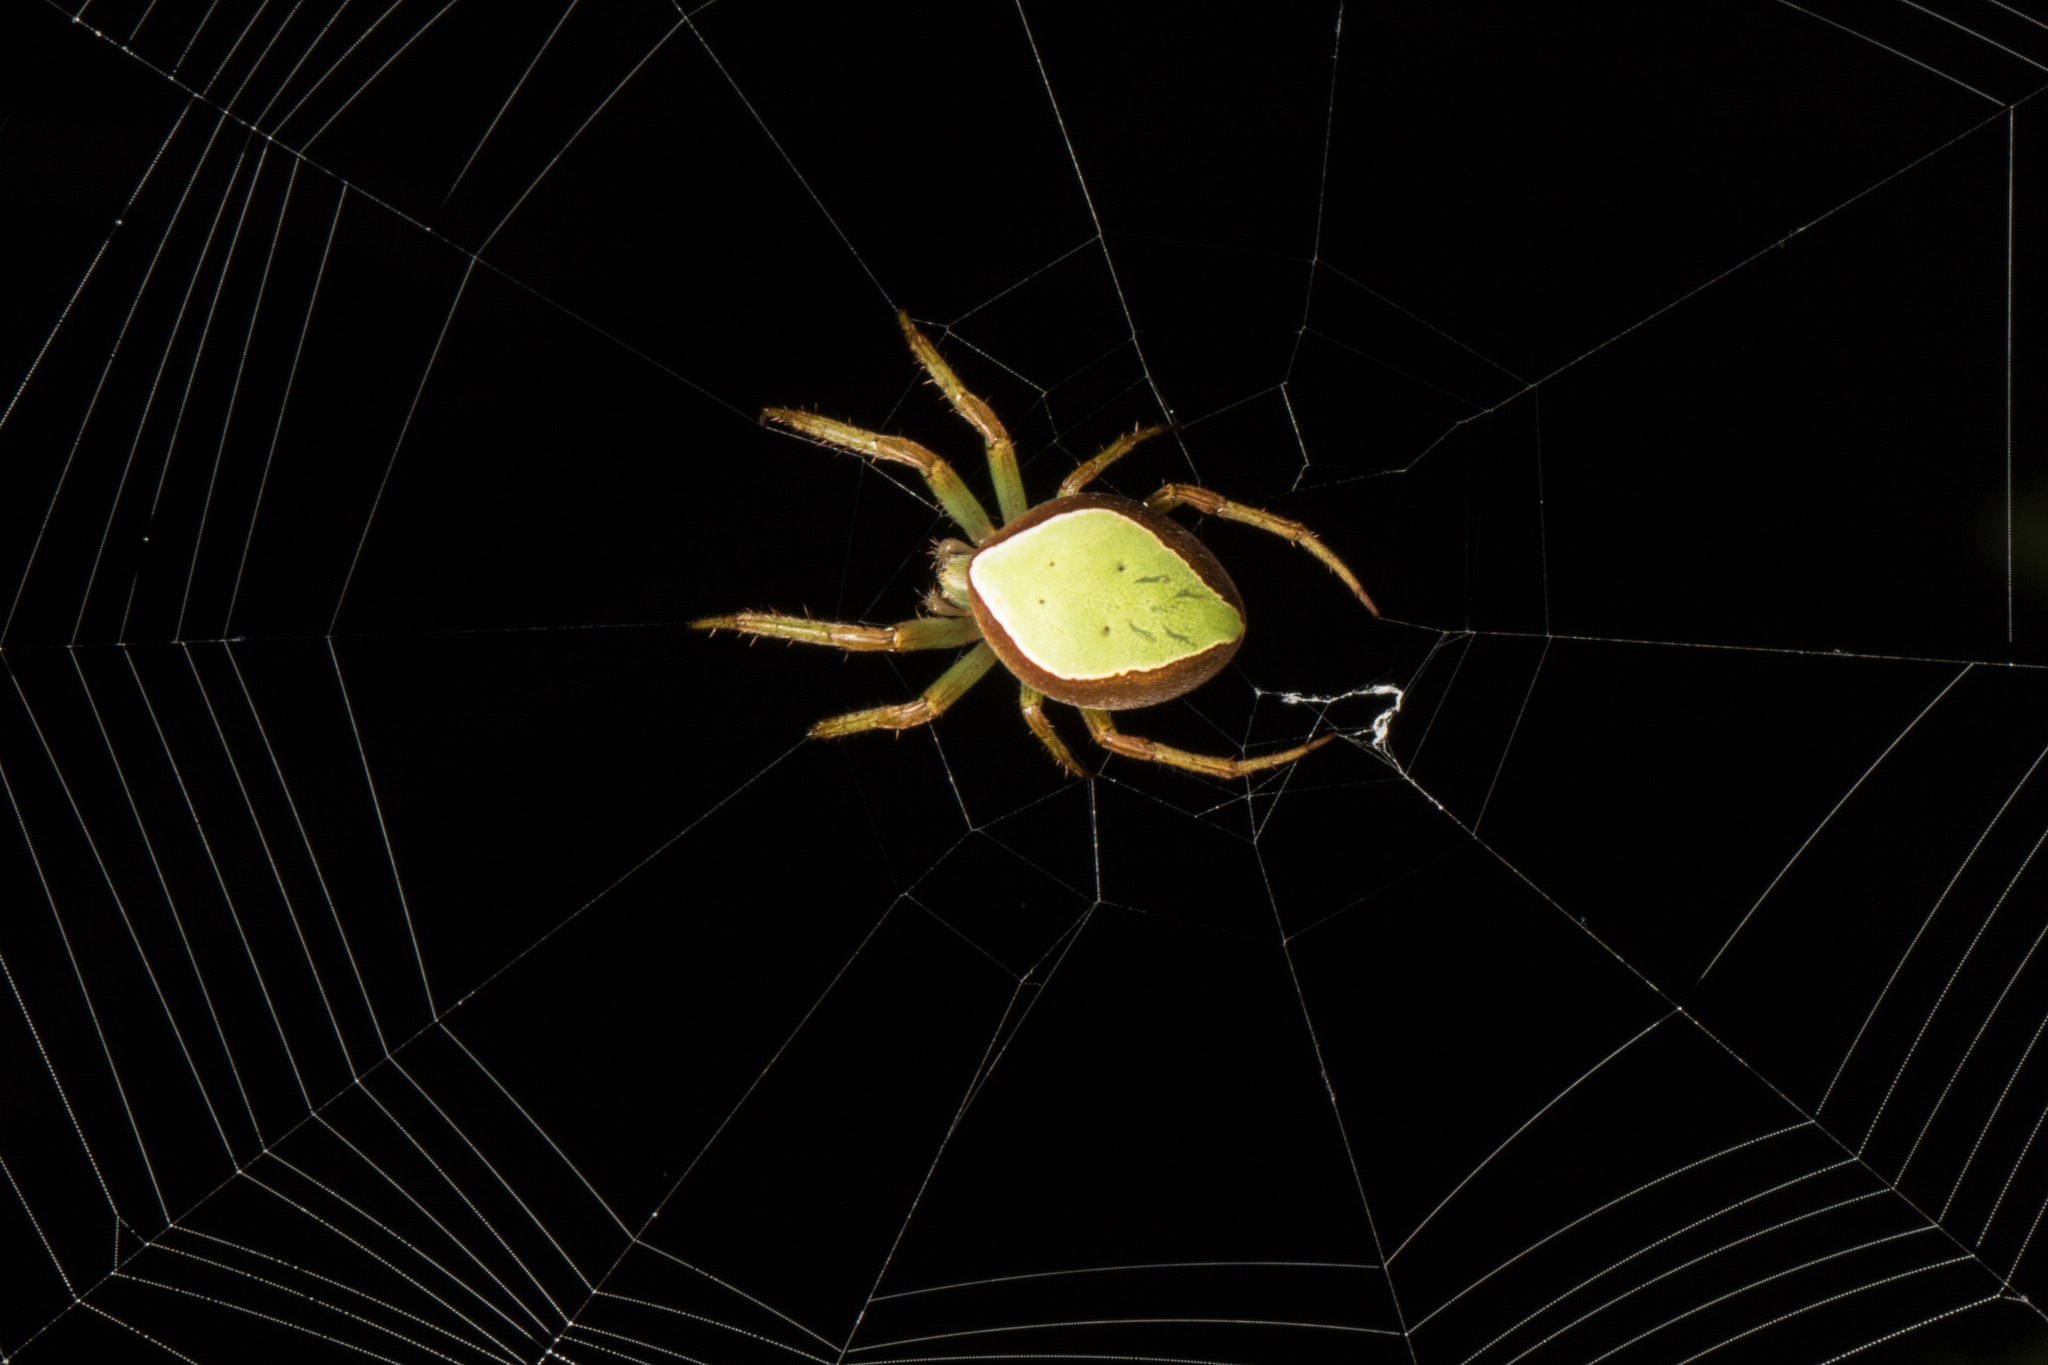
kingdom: Animalia
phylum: Arthropoda
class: Arachnida
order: Araneae
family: Araneidae
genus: Colaranea
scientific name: Colaranea viriditas
